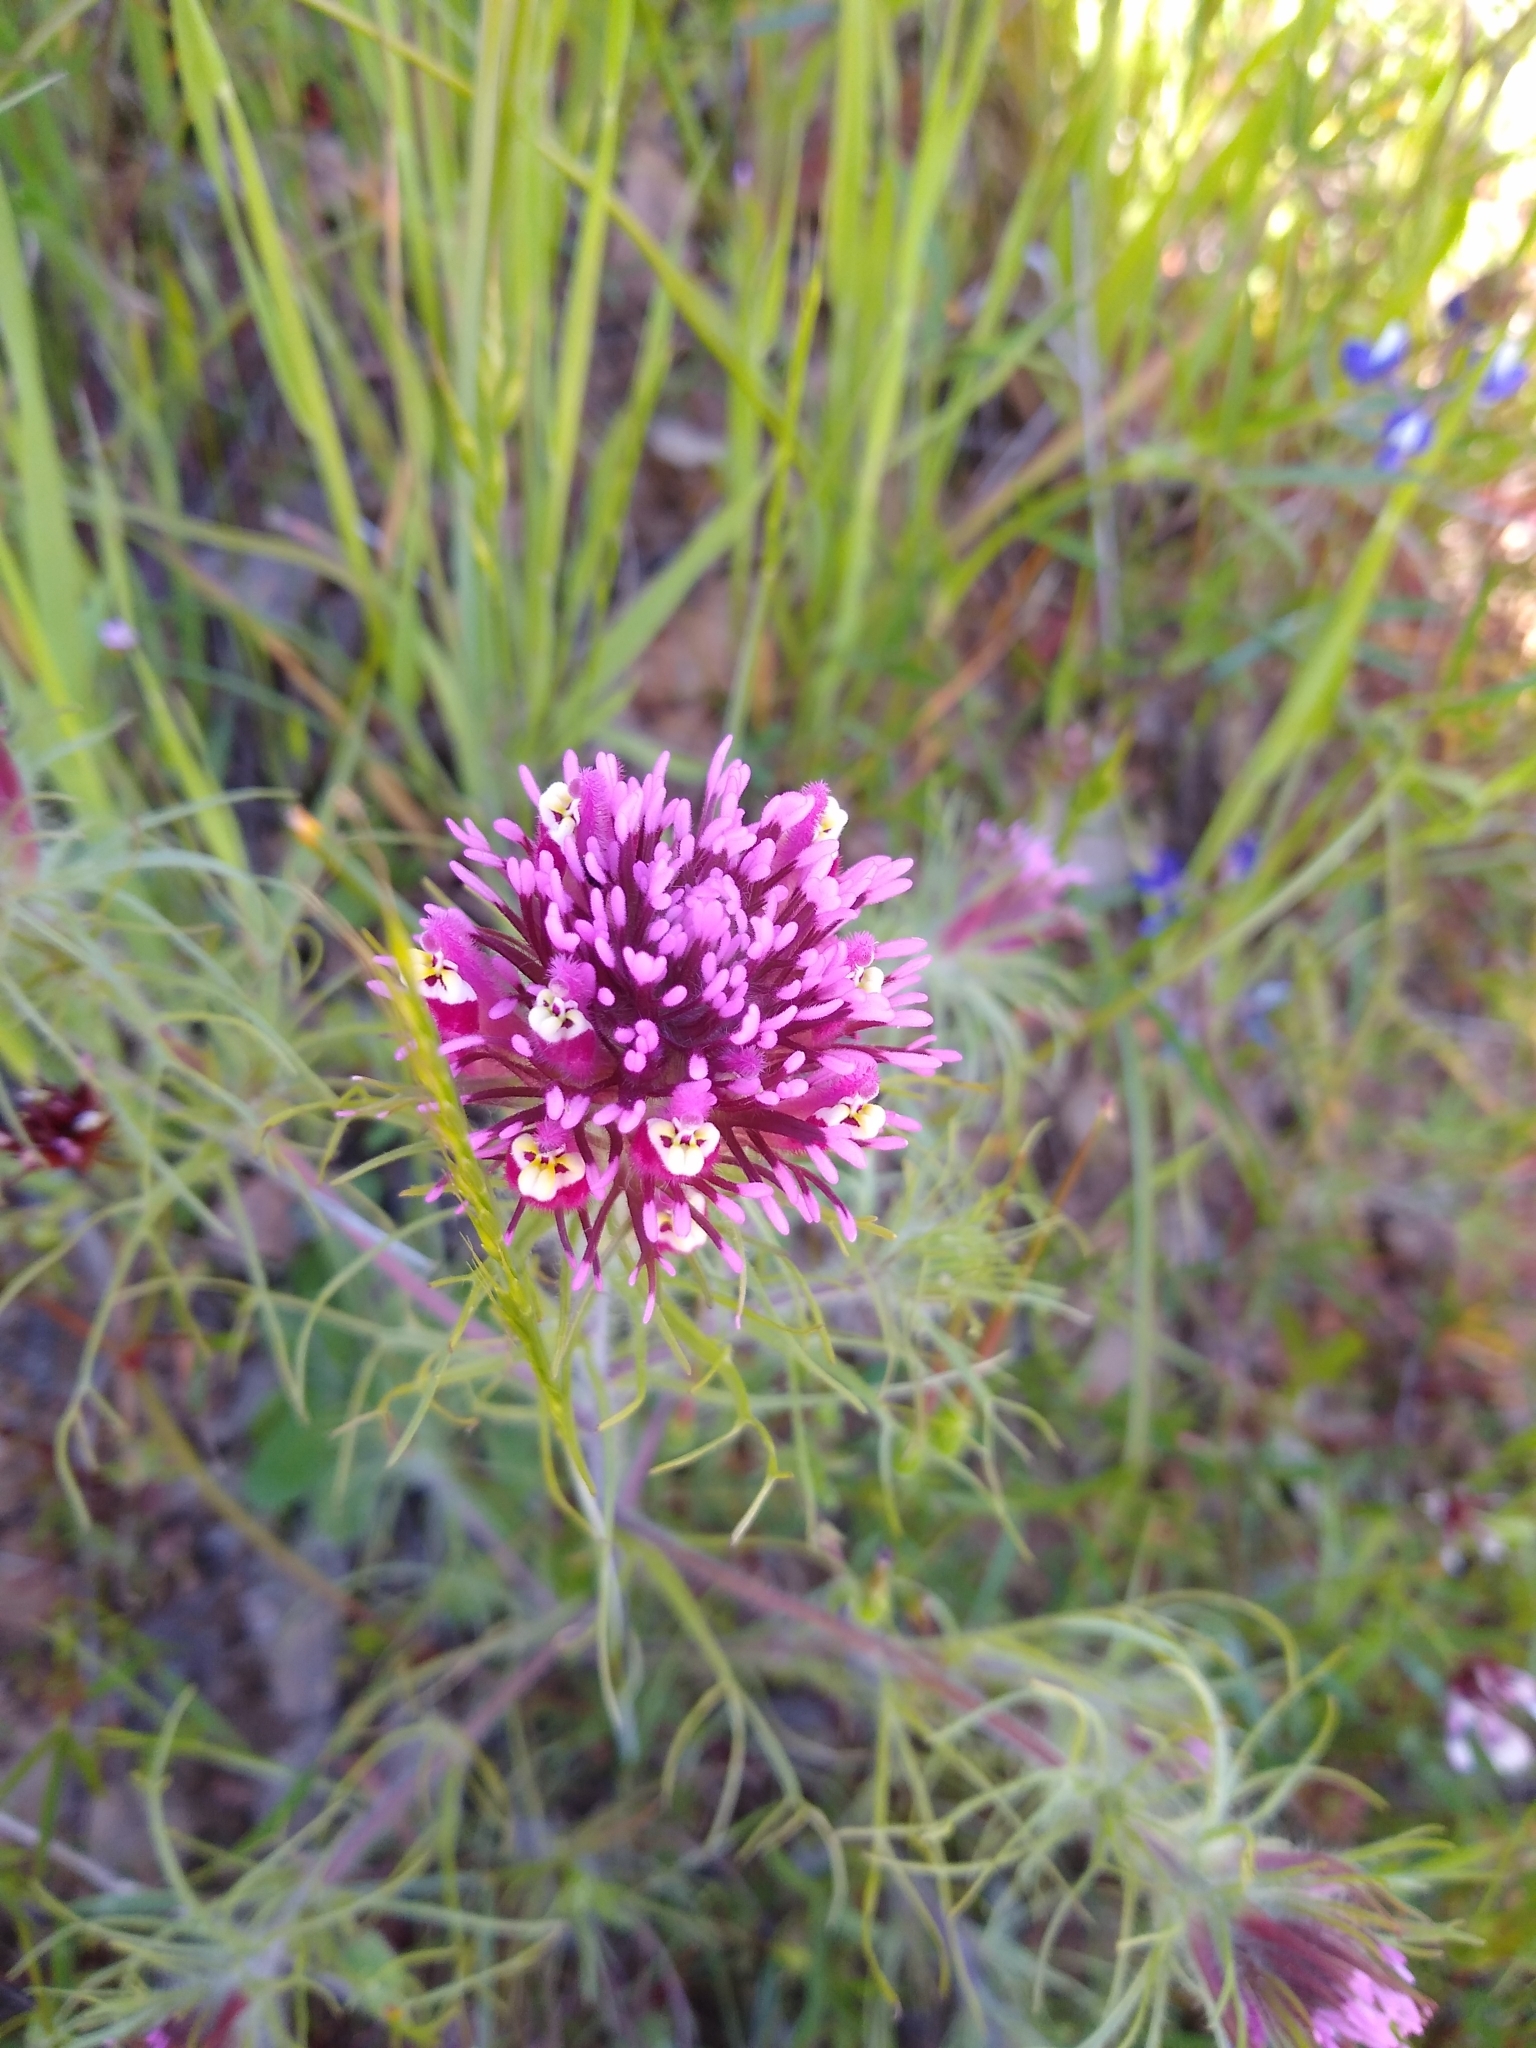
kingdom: Plantae
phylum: Tracheophyta
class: Magnoliopsida
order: Lamiales
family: Orobanchaceae
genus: Castilleja
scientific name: Castilleja exserta
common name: Purple owl-clover
